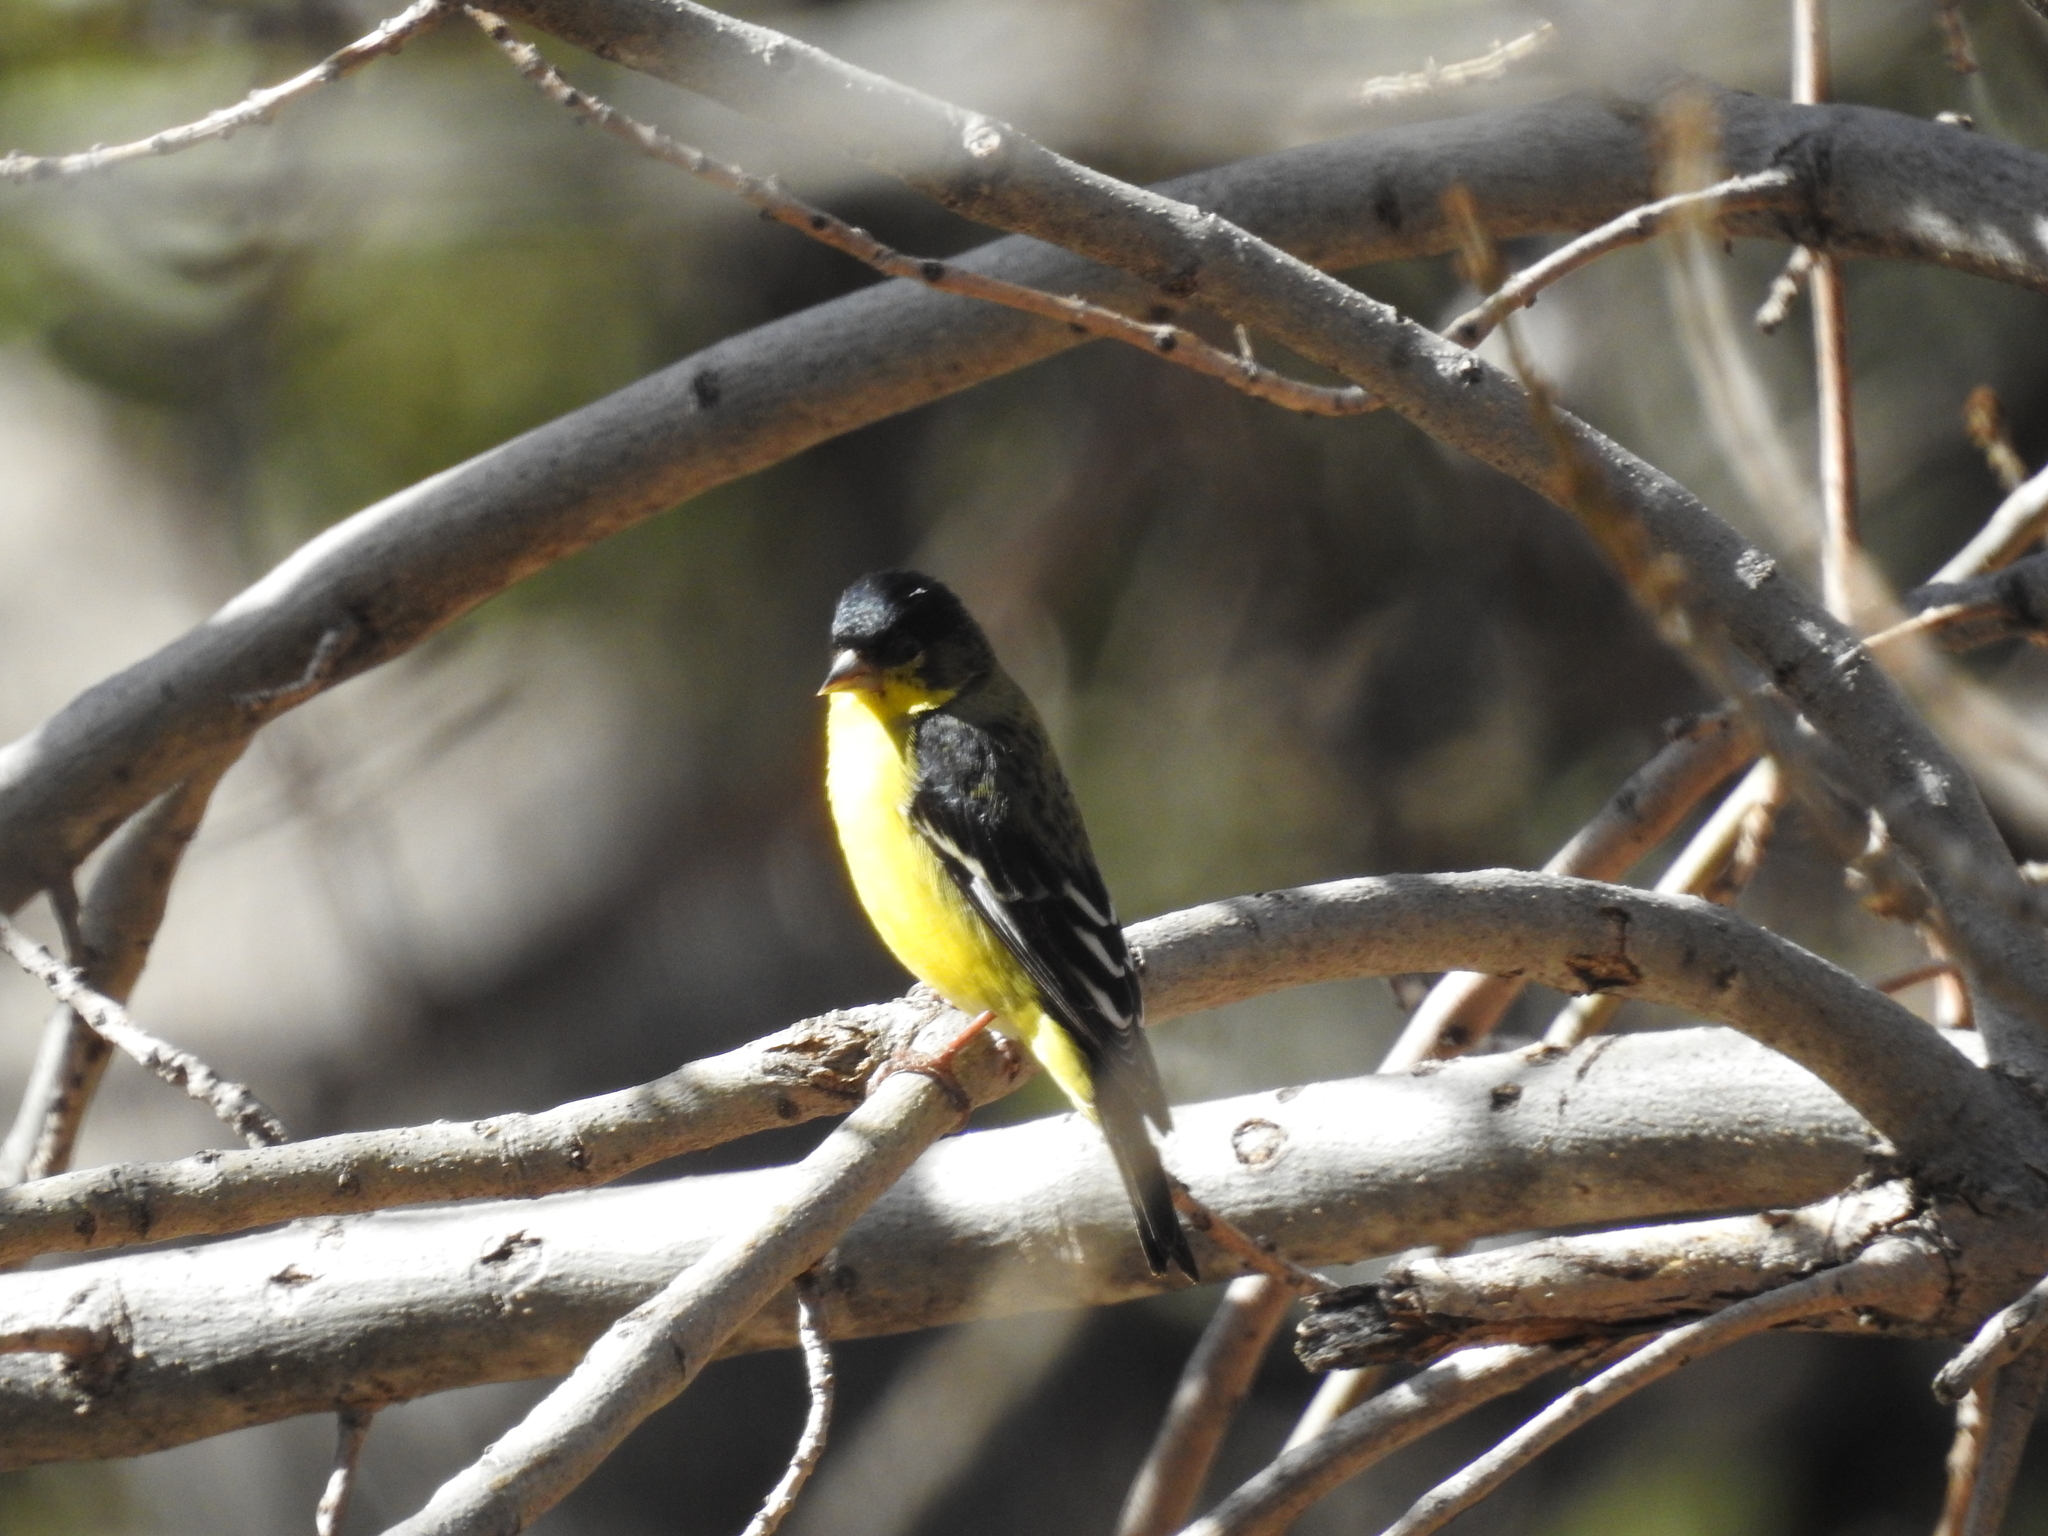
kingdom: Animalia
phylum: Chordata
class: Aves
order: Passeriformes
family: Fringillidae
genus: Spinus
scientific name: Spinus psaltria
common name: Lesser goldfinch
